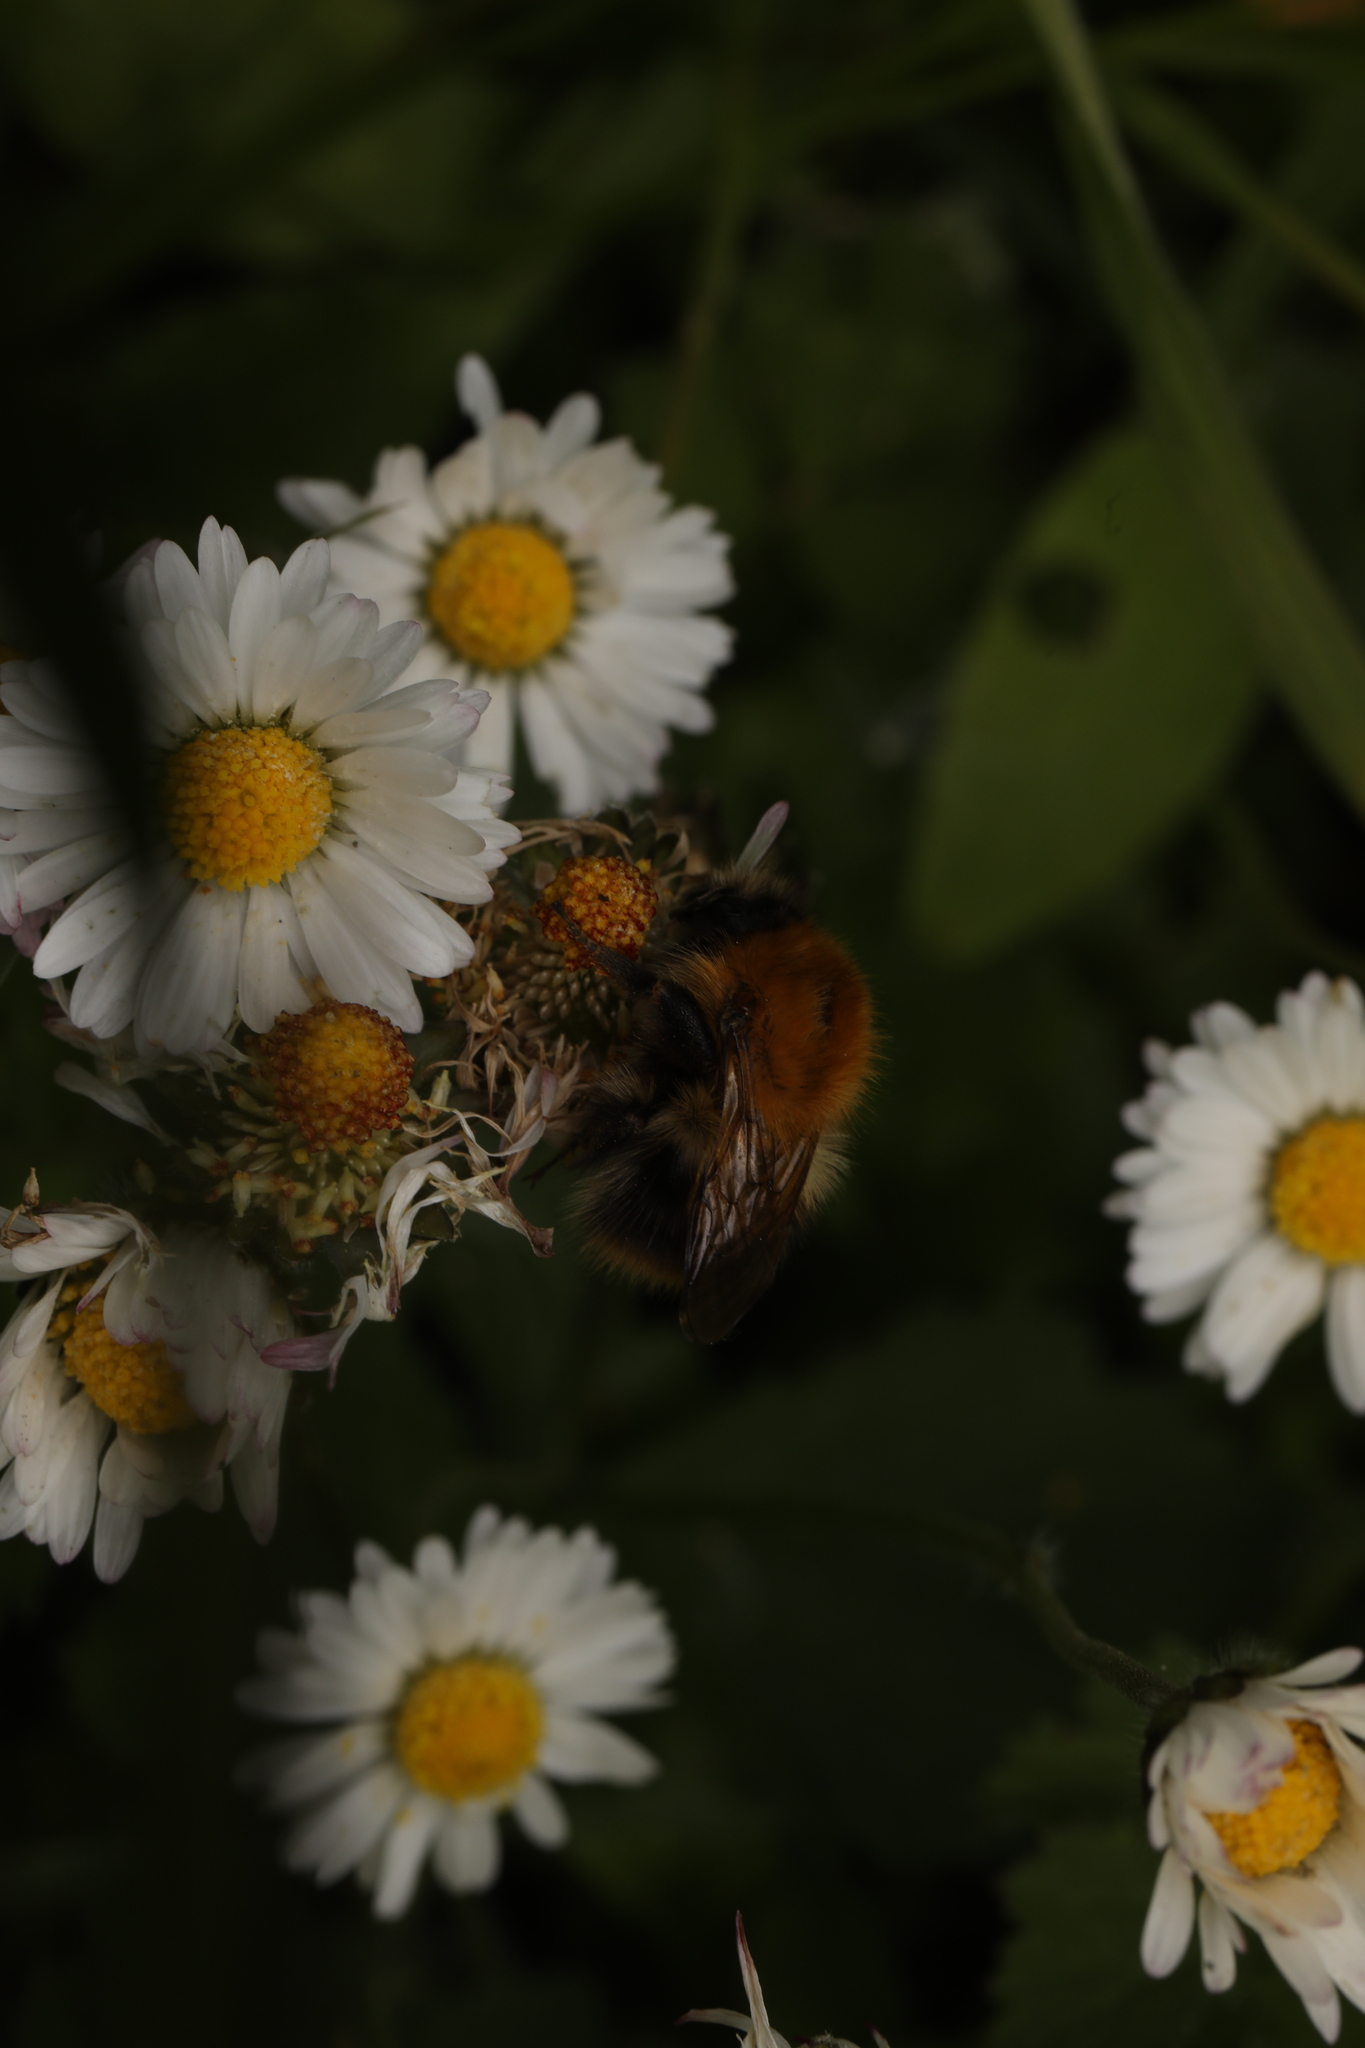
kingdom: Animalia
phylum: Arthropoda
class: Insecta
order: Hymenoptera
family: Apidae
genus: Bombus
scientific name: Bombus pascuorum
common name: Common carder bee
